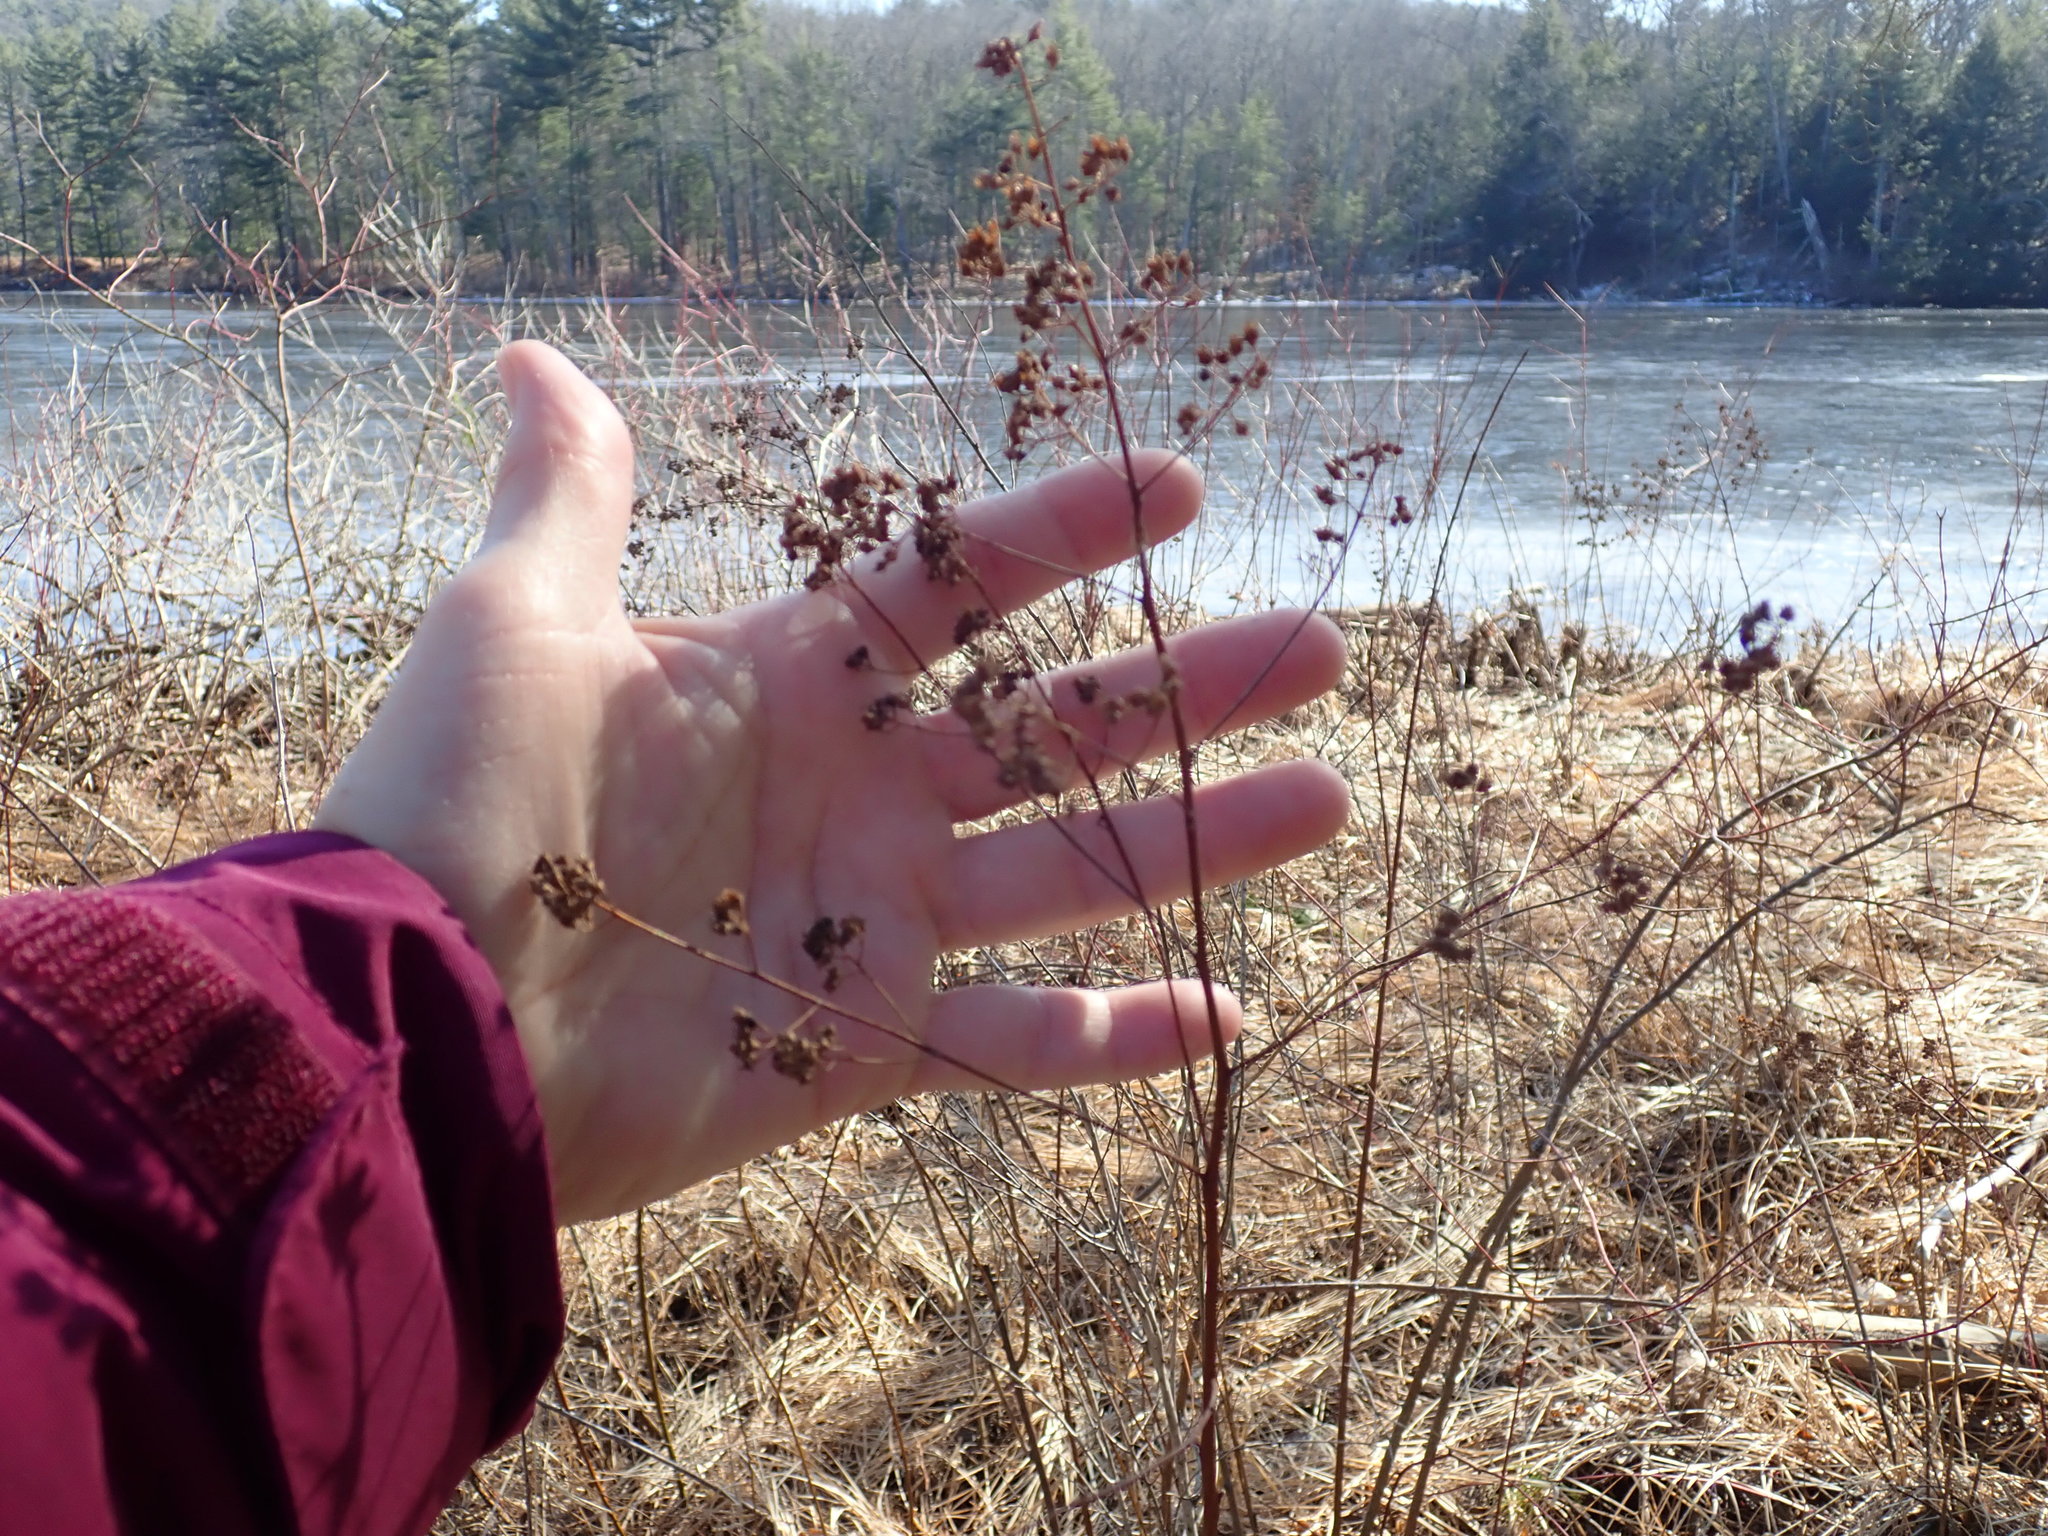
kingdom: Plantae
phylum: Tracheophyta
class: Magnoliopsida
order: Rosales
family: Rosaceae
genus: Spiraea
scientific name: Spiraea alba
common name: Pale bridewort
